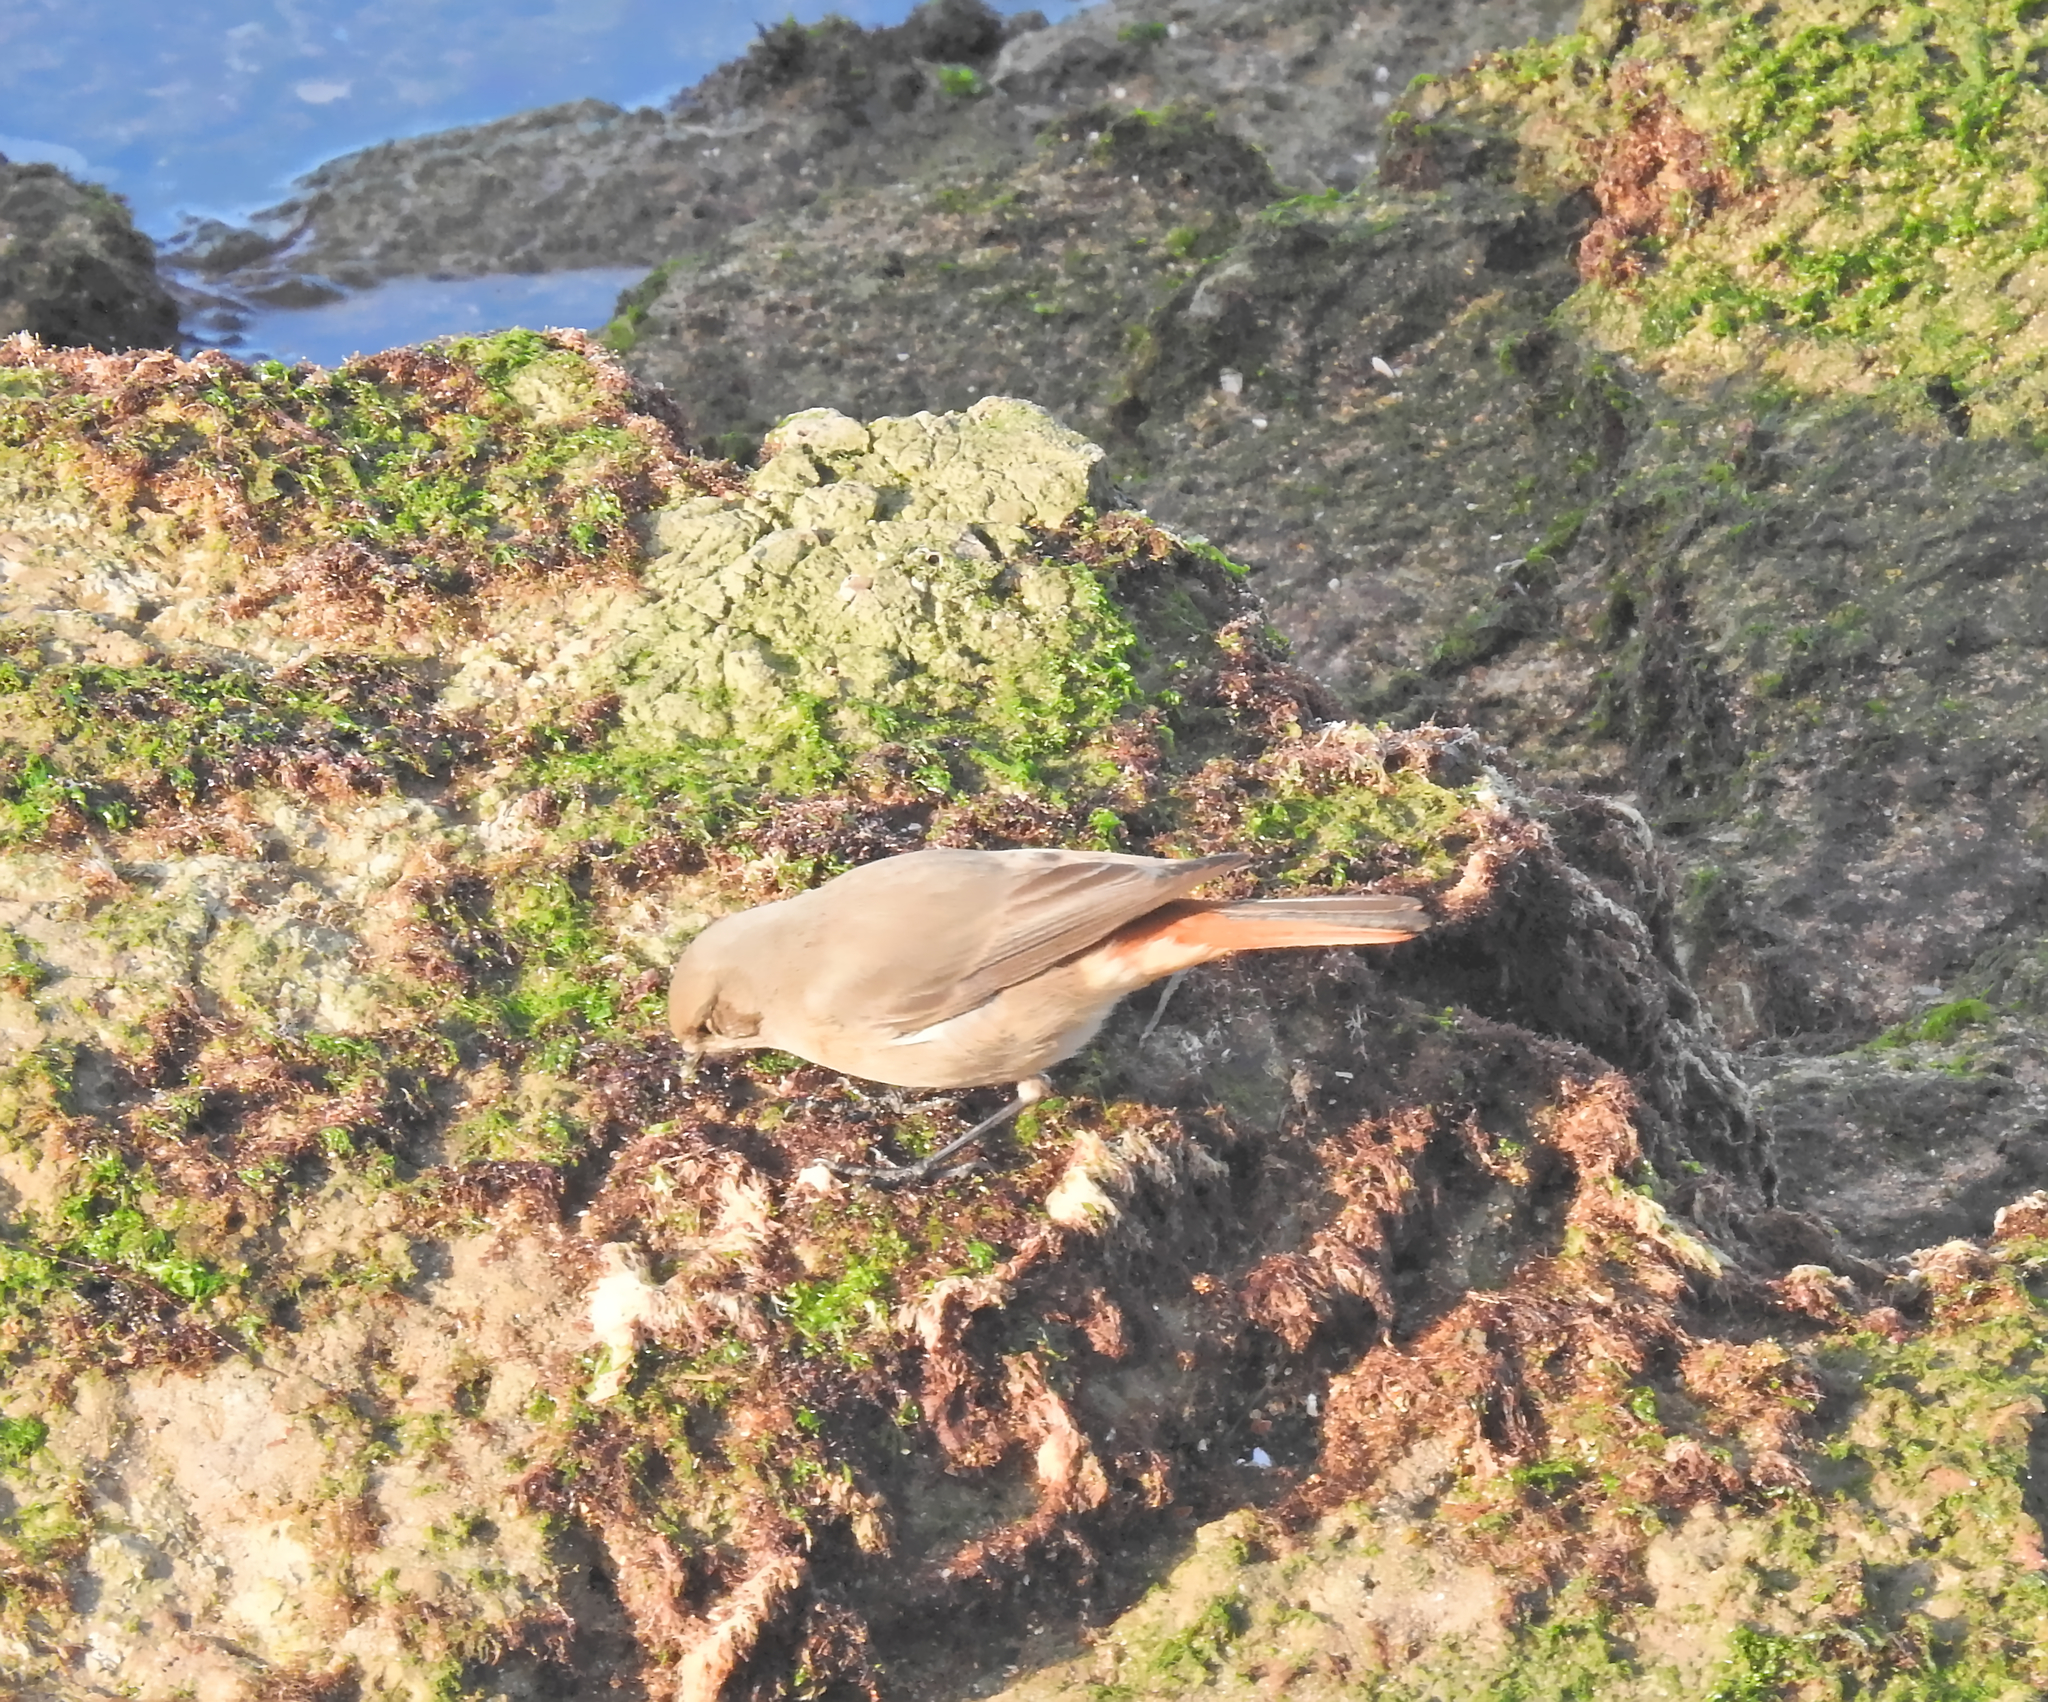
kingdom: Animalia
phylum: Chordata
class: Aves
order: Passeriformes
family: Muscicapidae
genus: Phoenicurus
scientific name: Phoenicurus ochruros
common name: Black redstart
